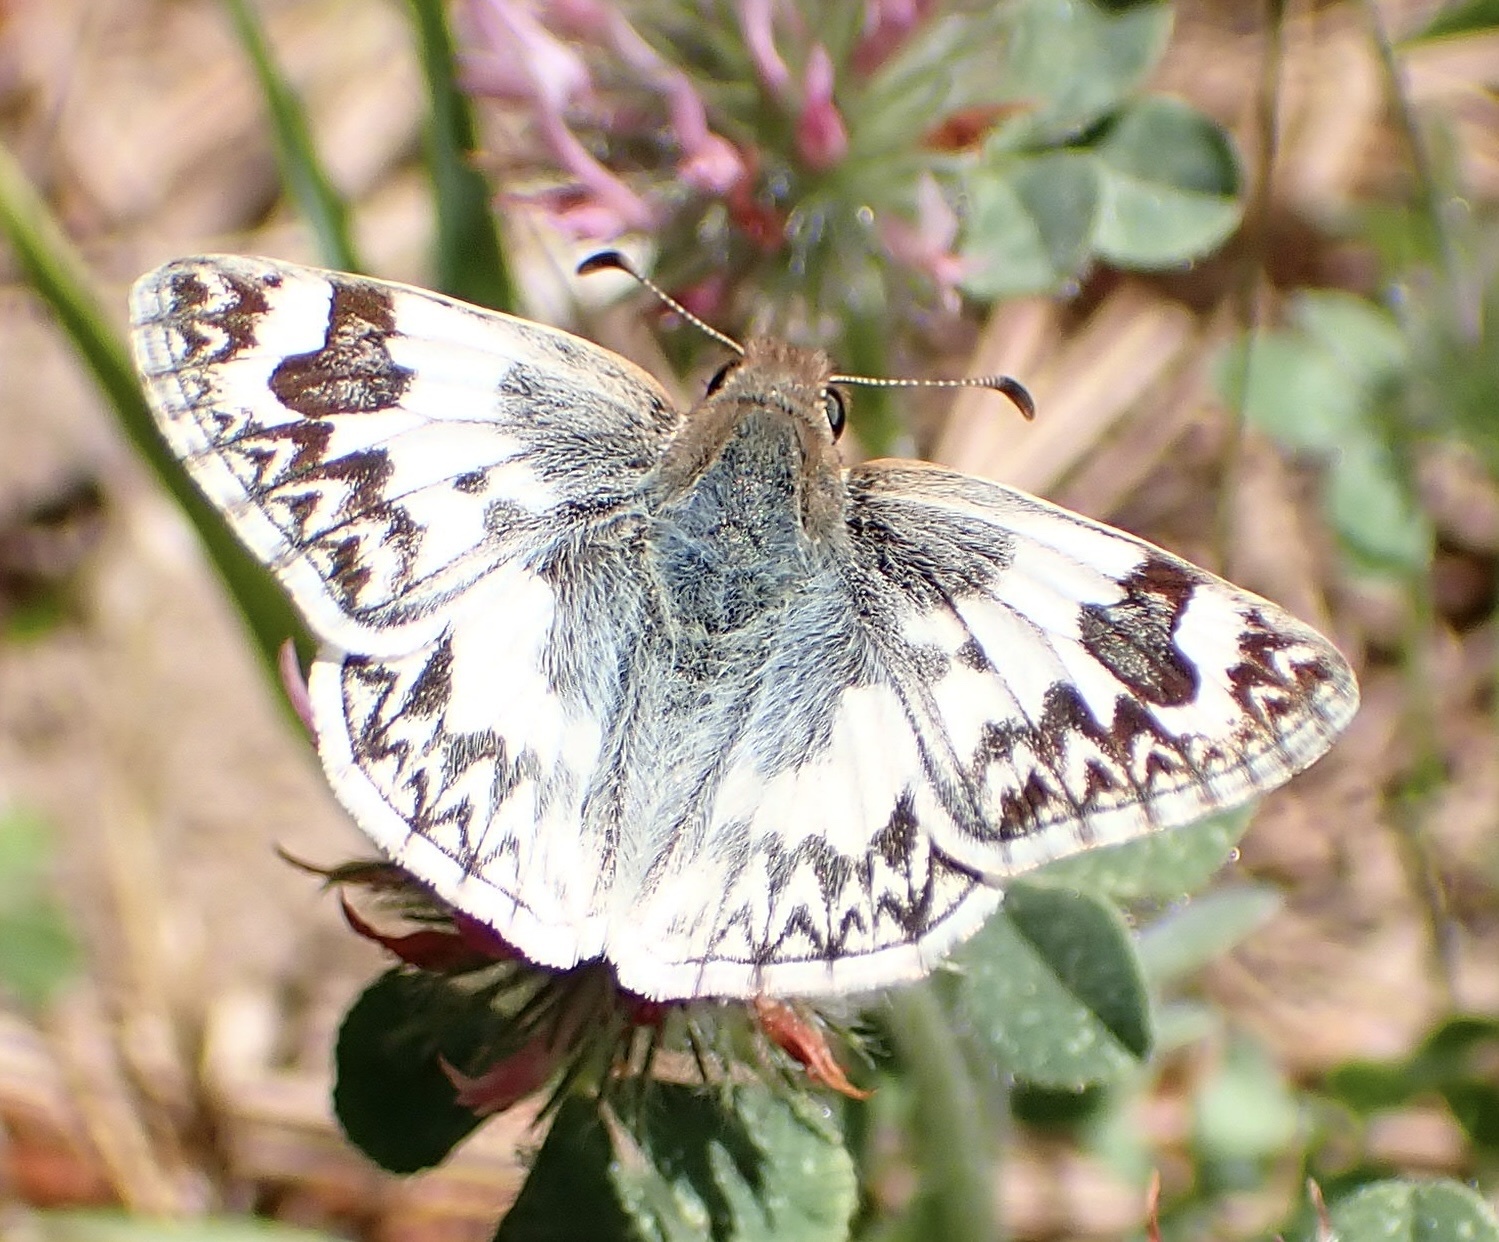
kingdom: Animalia
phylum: Arthropoda
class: Insecta
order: Lepidoptera
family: Hesperiidae
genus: Heliopetes
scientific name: Heliopetes ericetorum
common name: Northern white-skipper
